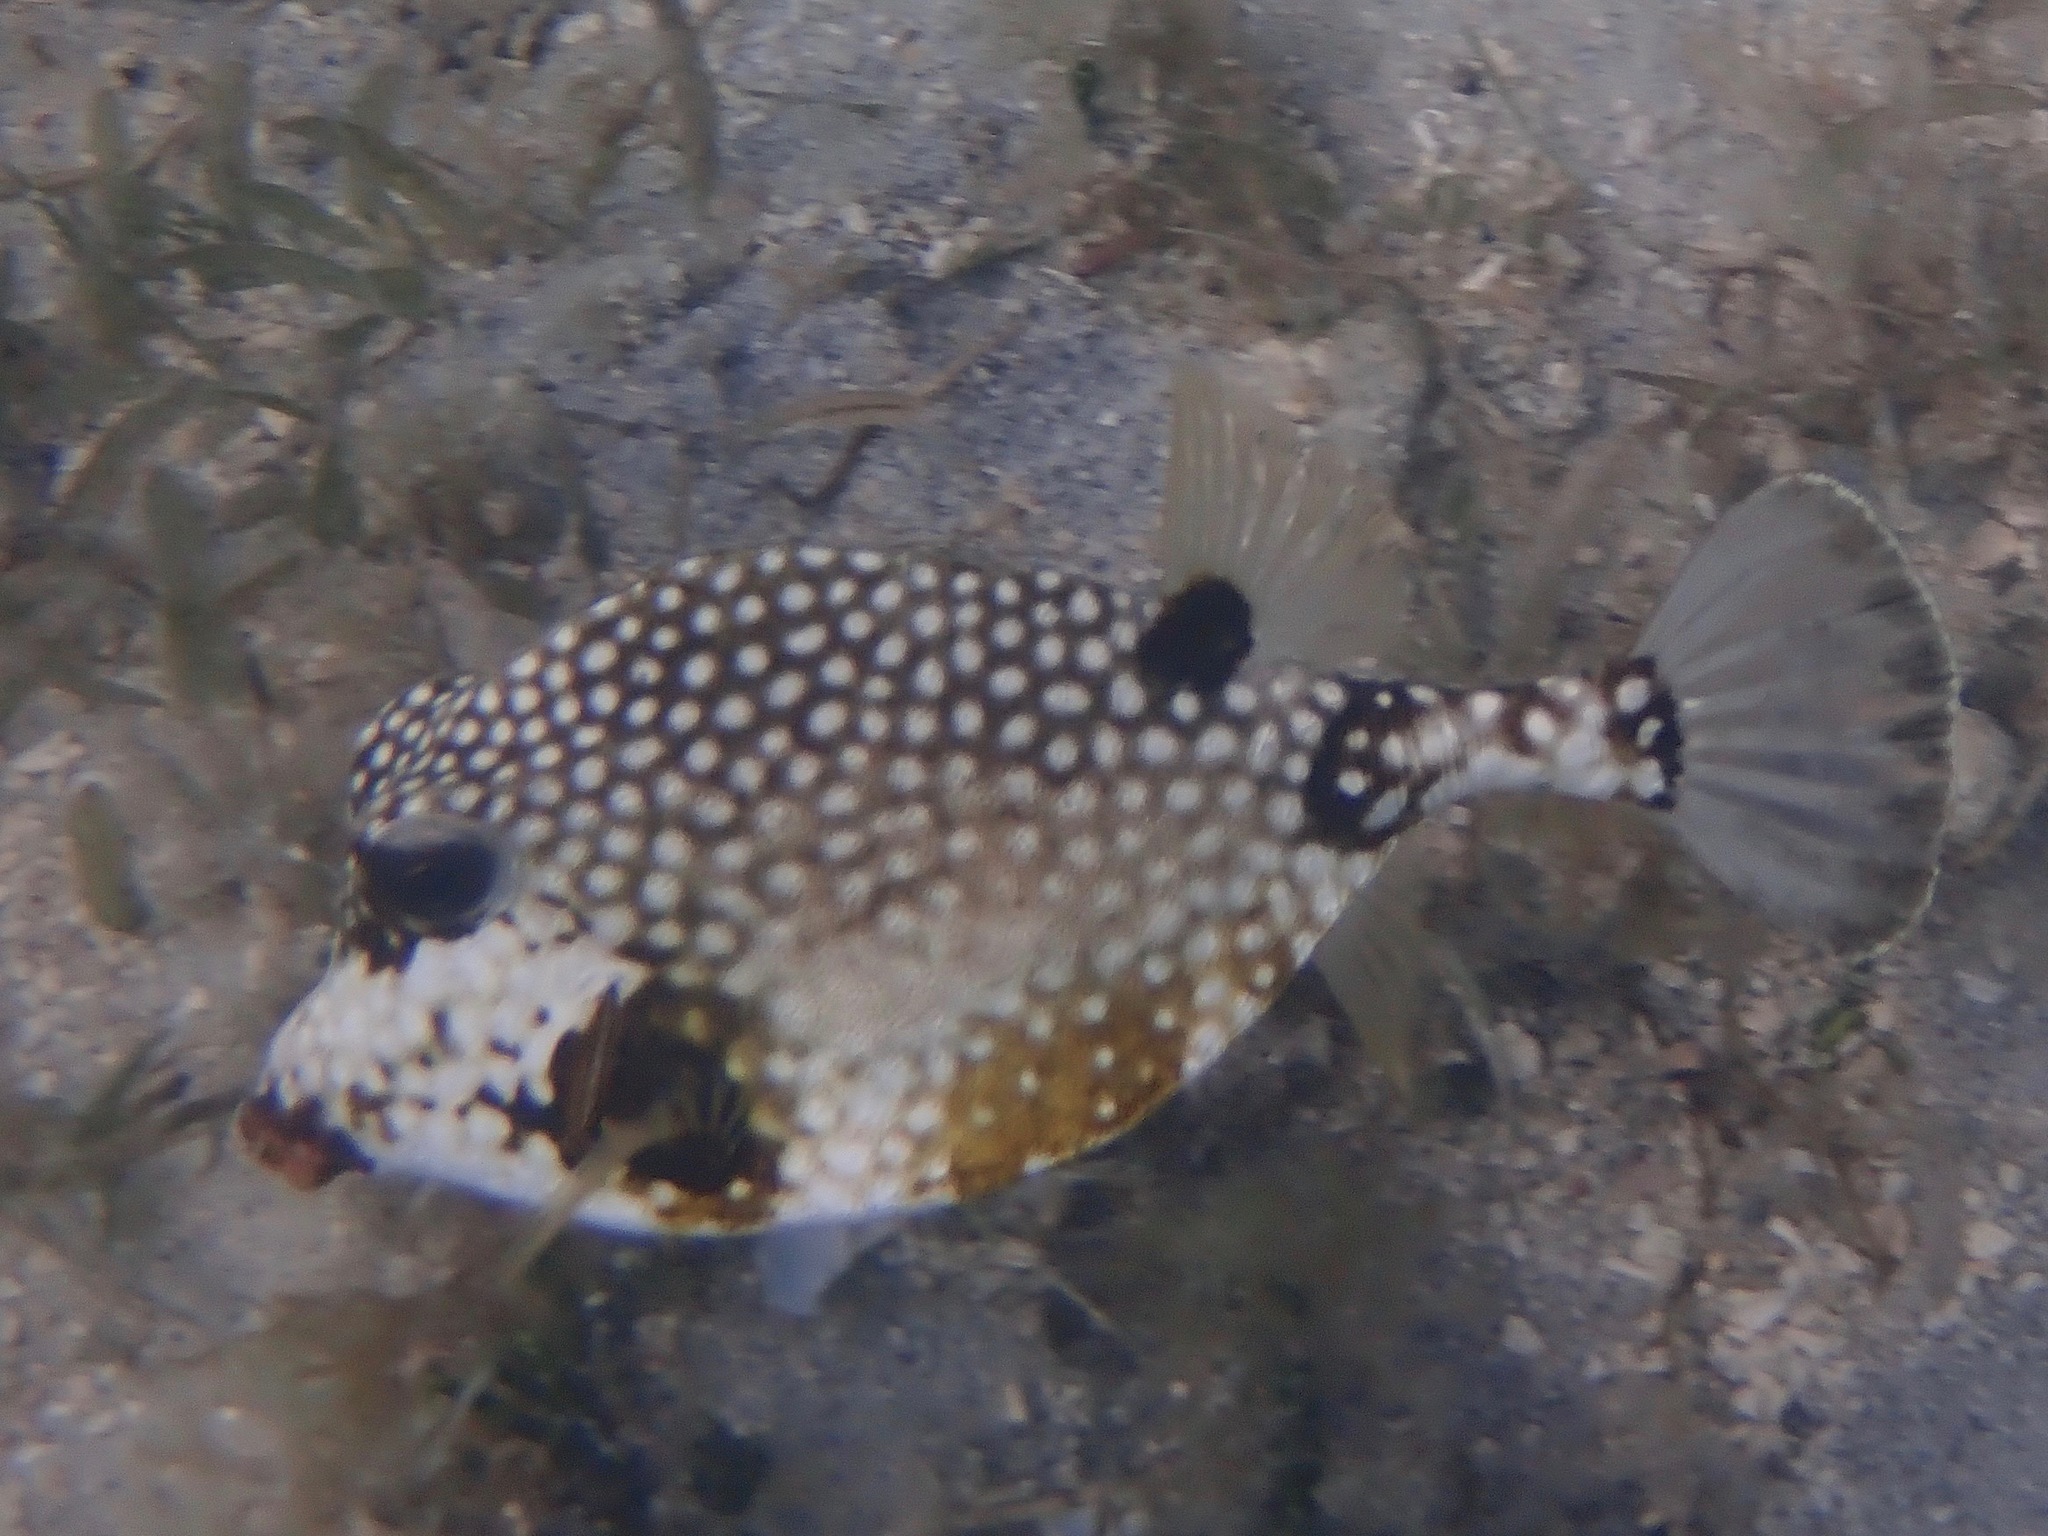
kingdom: Animalia
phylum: Chordata
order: Tetraodontiformes
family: Ostraciidae
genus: Lactophrys
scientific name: Lactophrys triqueter
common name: Smooth trunkfish
